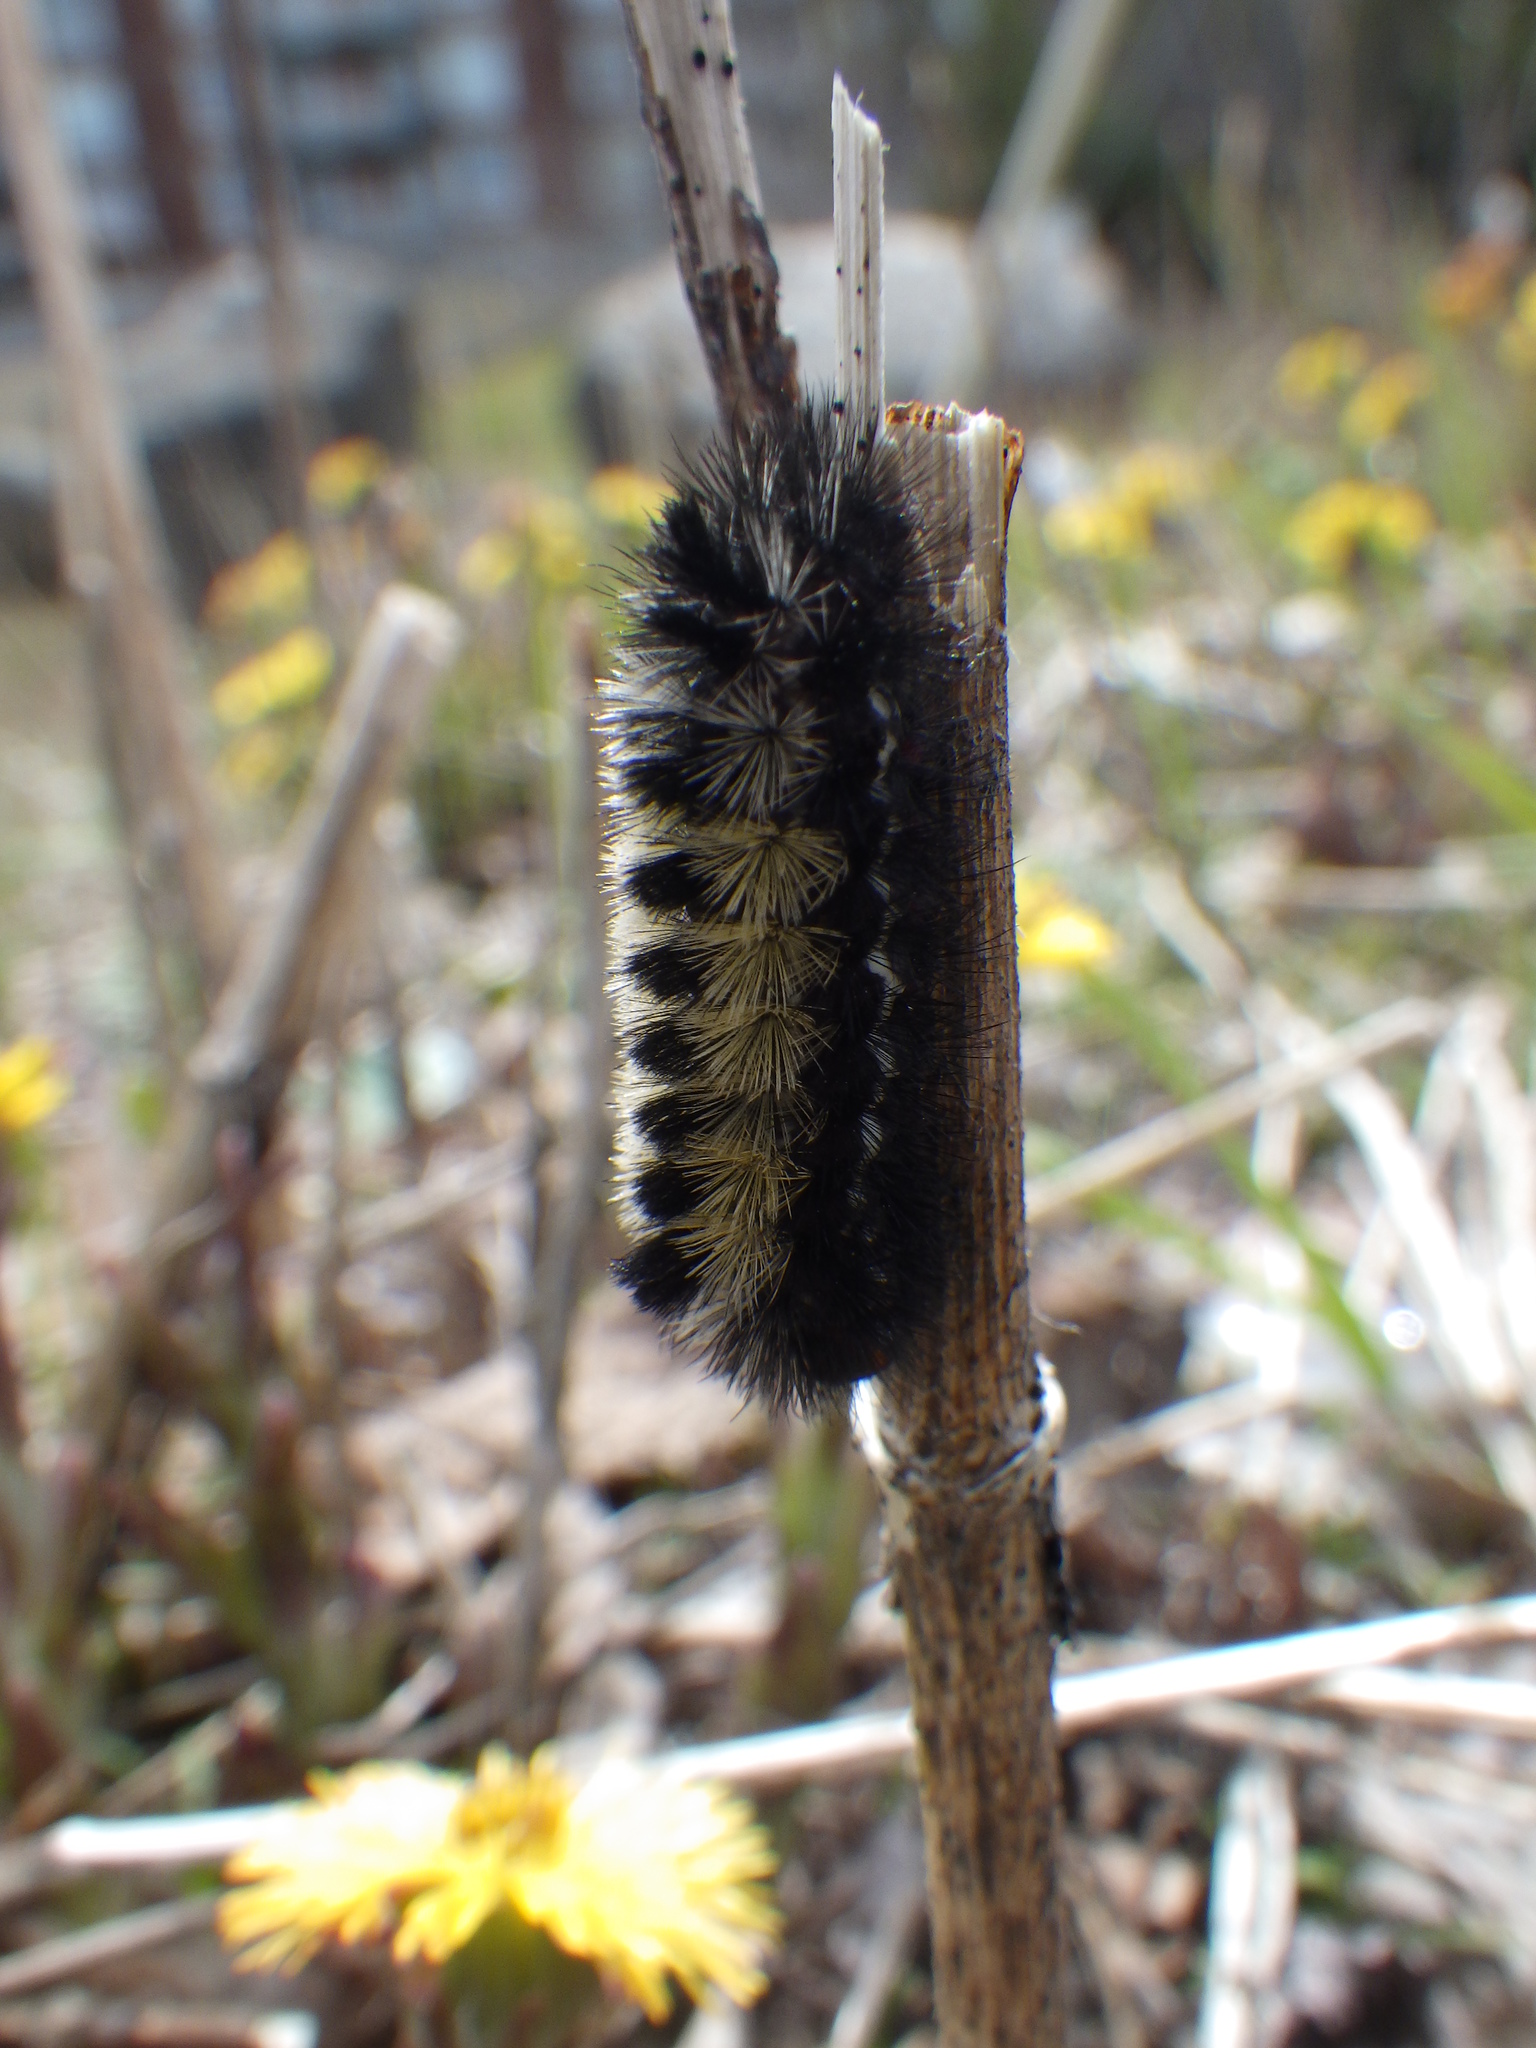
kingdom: Animalia
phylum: Arthropoda
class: Insecta
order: Lepidoptera
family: Erebidae
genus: Ctenucha
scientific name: Ctenucha virginica
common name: Virginia ctenucha moth
